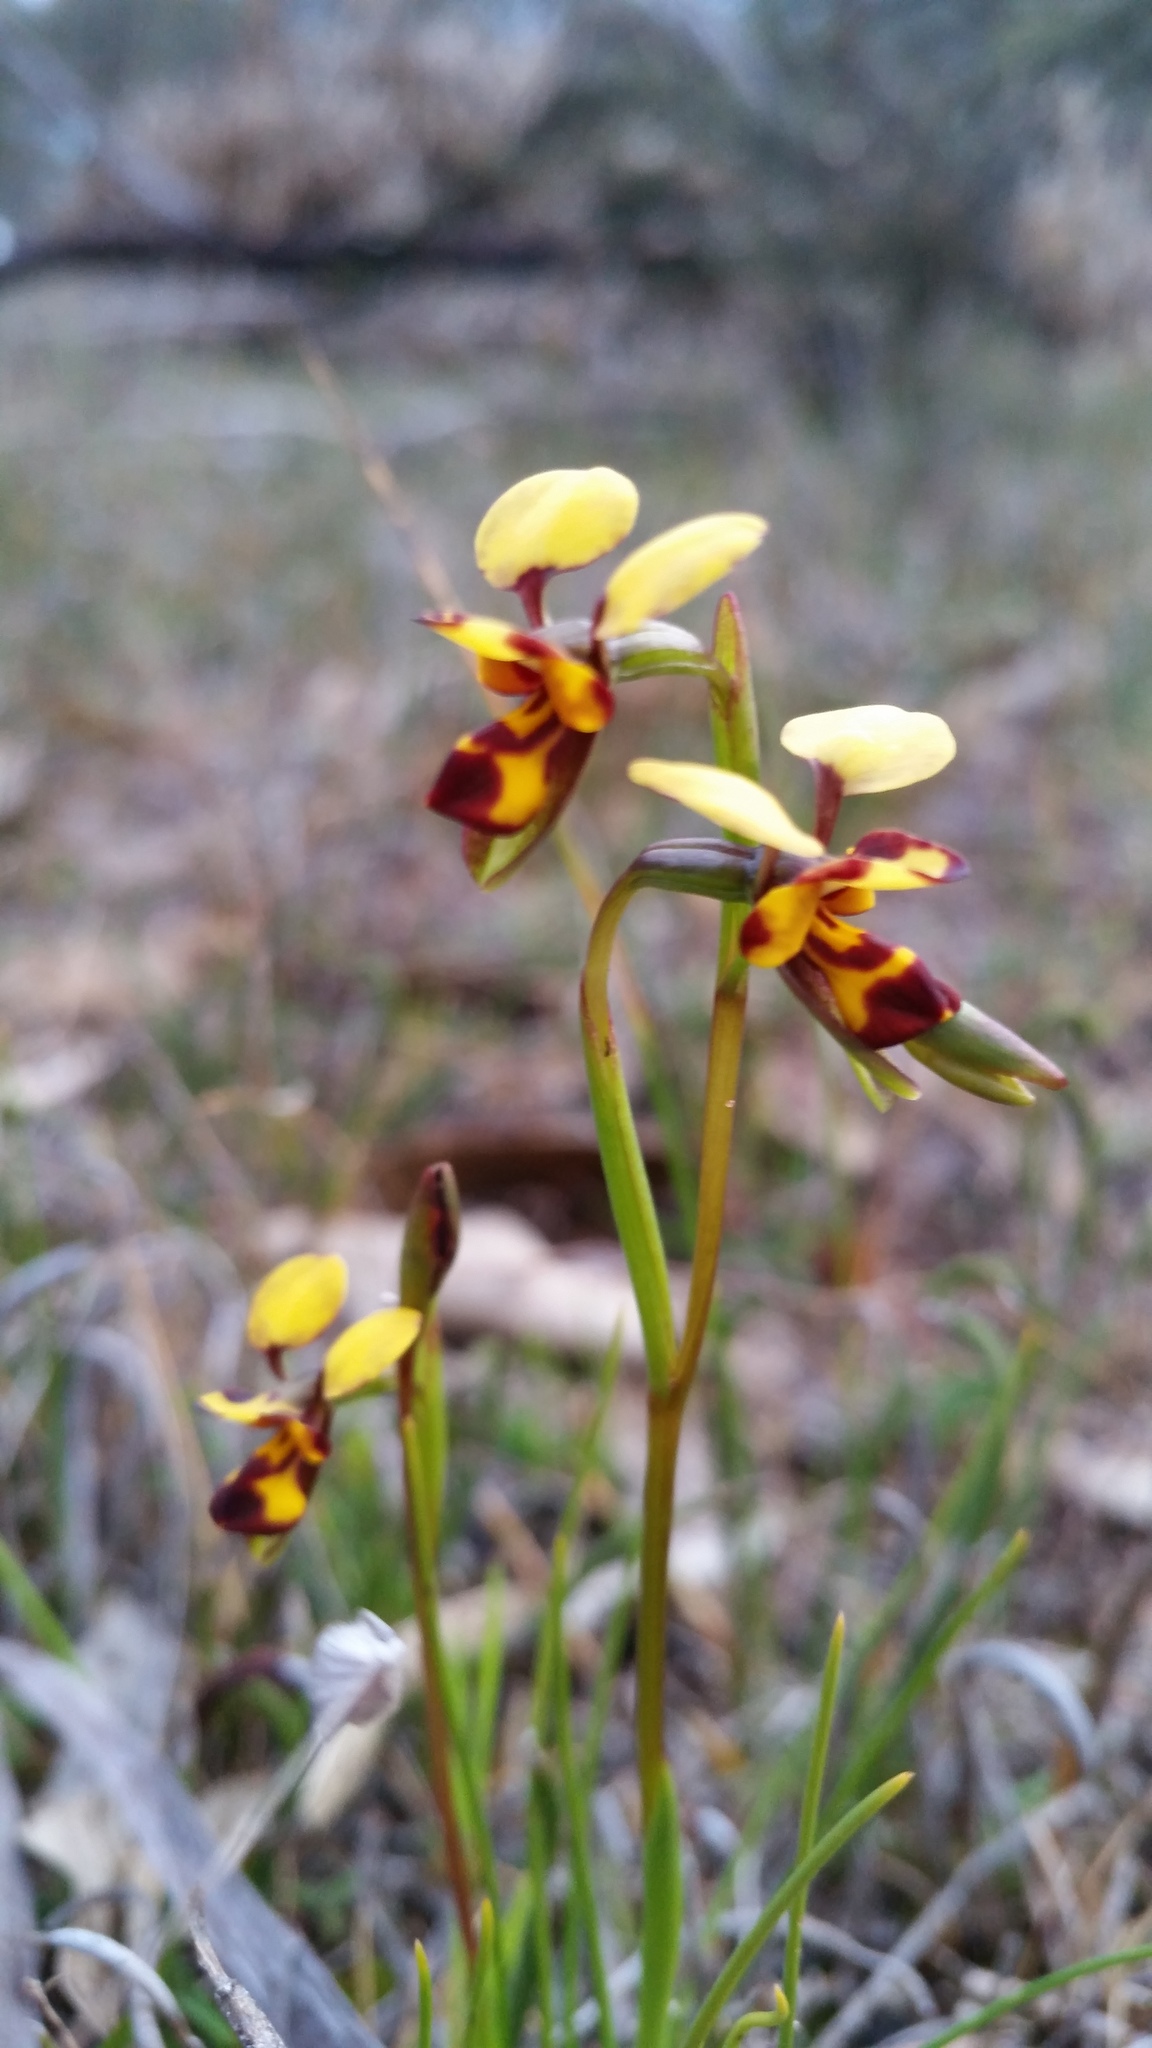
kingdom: Plantae
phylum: Tracheophyta
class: Liliopsida
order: Asparagales
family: Orchidaceae
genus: Diuris
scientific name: Diuris laxiflora
